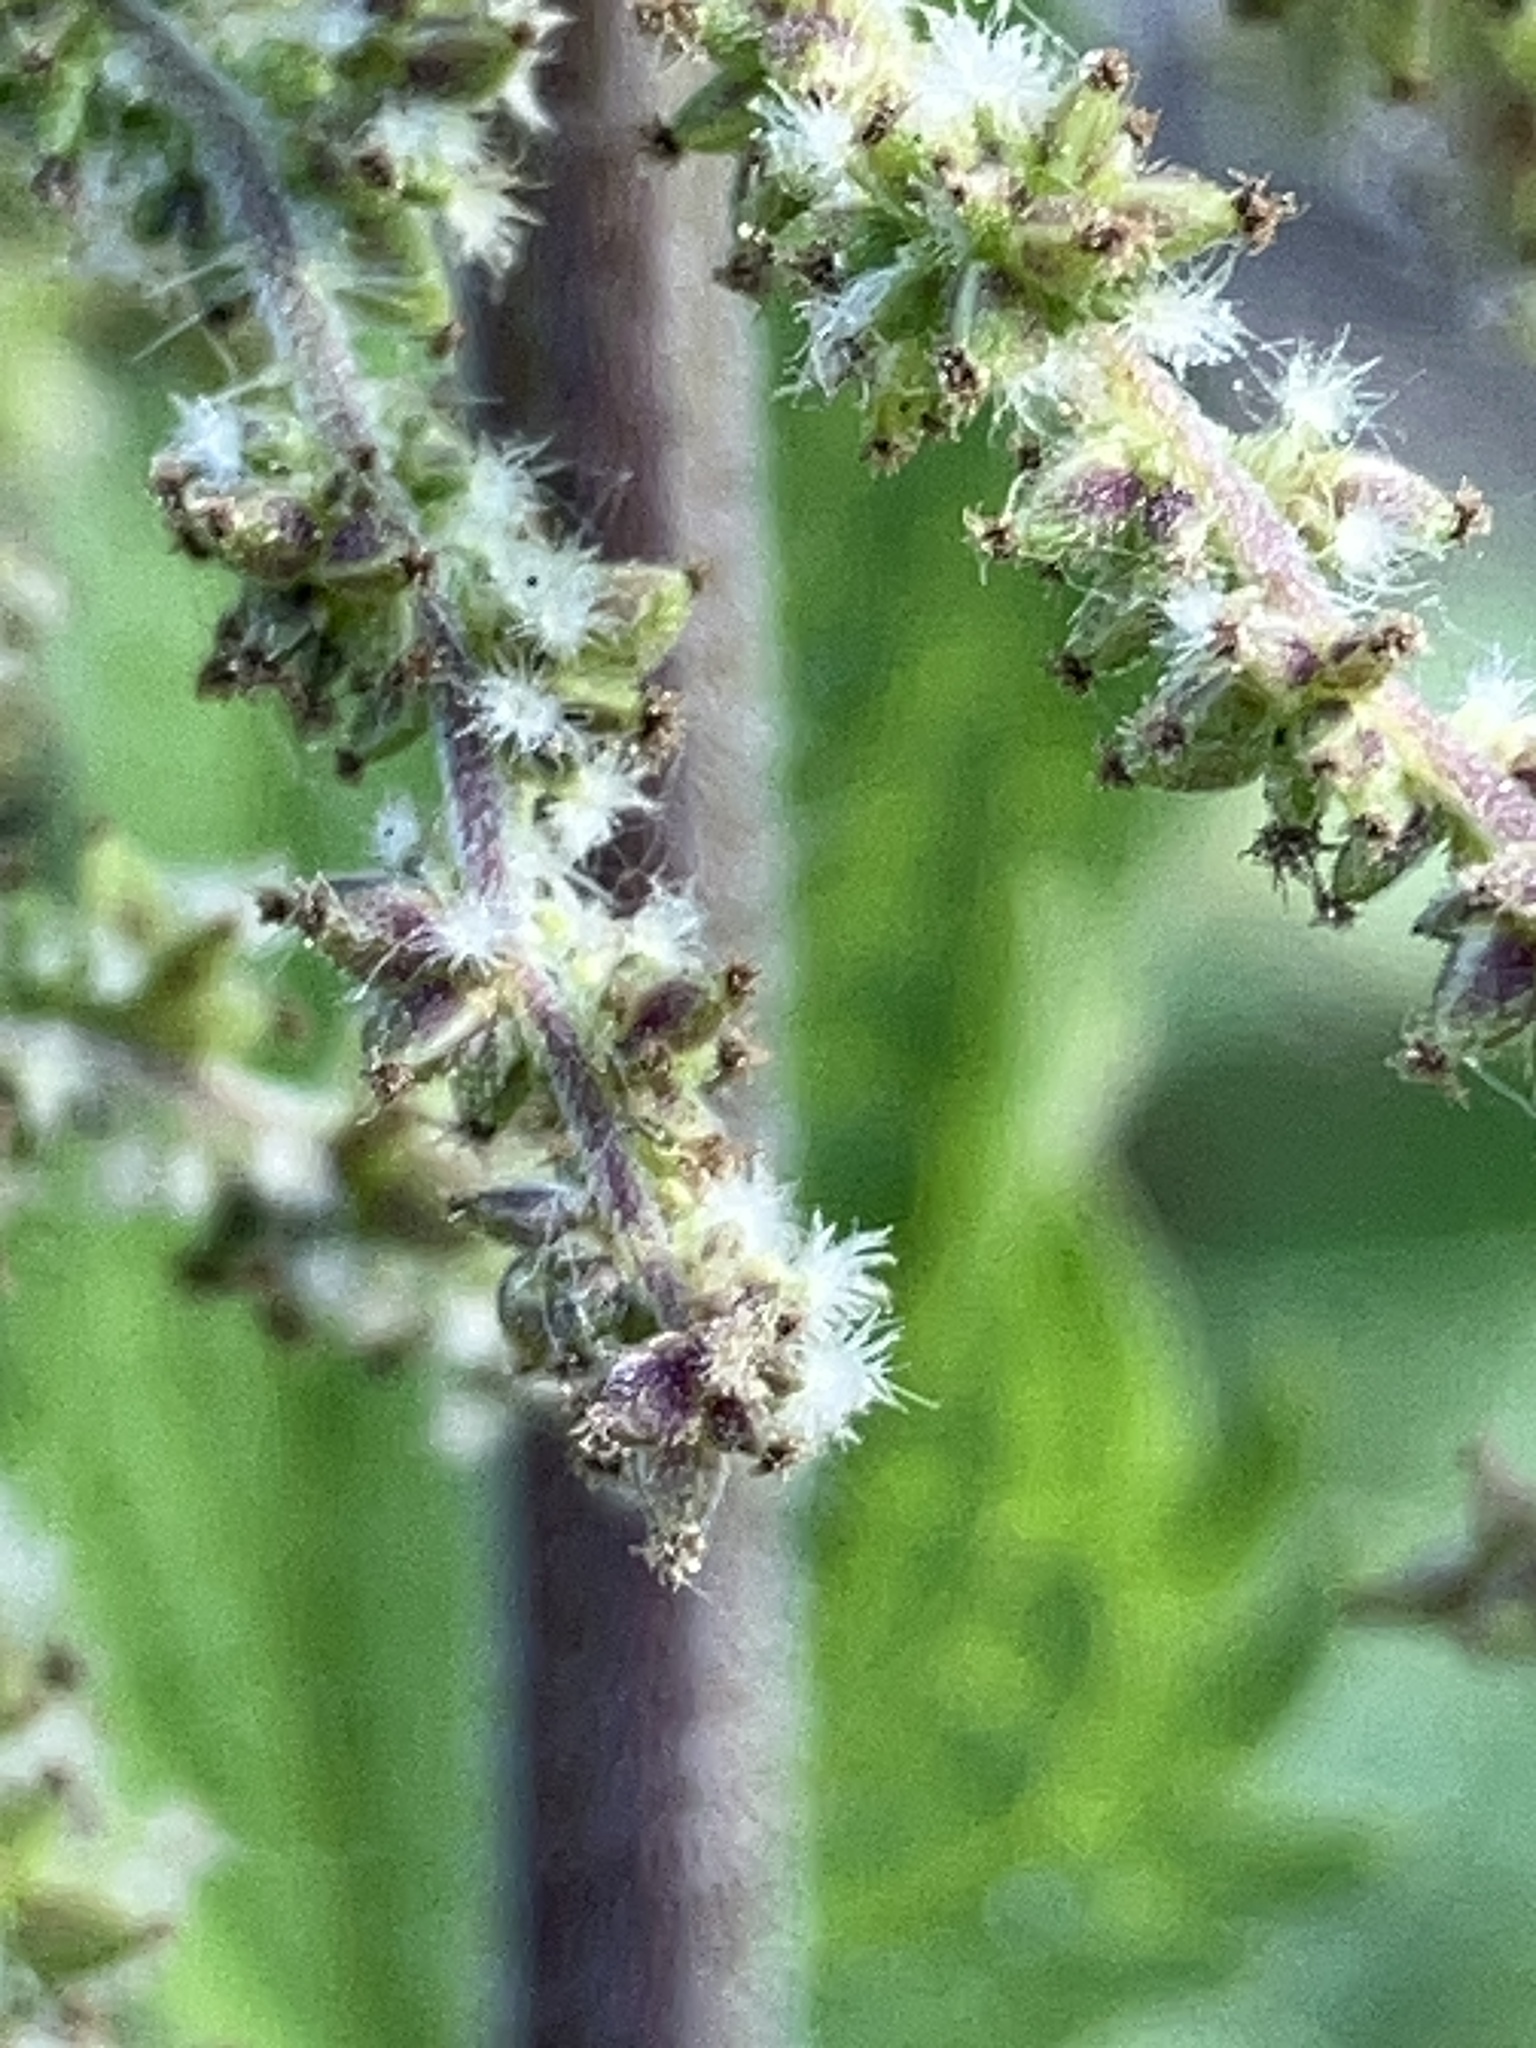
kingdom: Plantae
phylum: Tracheophyta
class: Magnoliopsida
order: Rosales
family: Urticaceae
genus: Urtica
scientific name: Urtica dioica
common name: Common nettle
